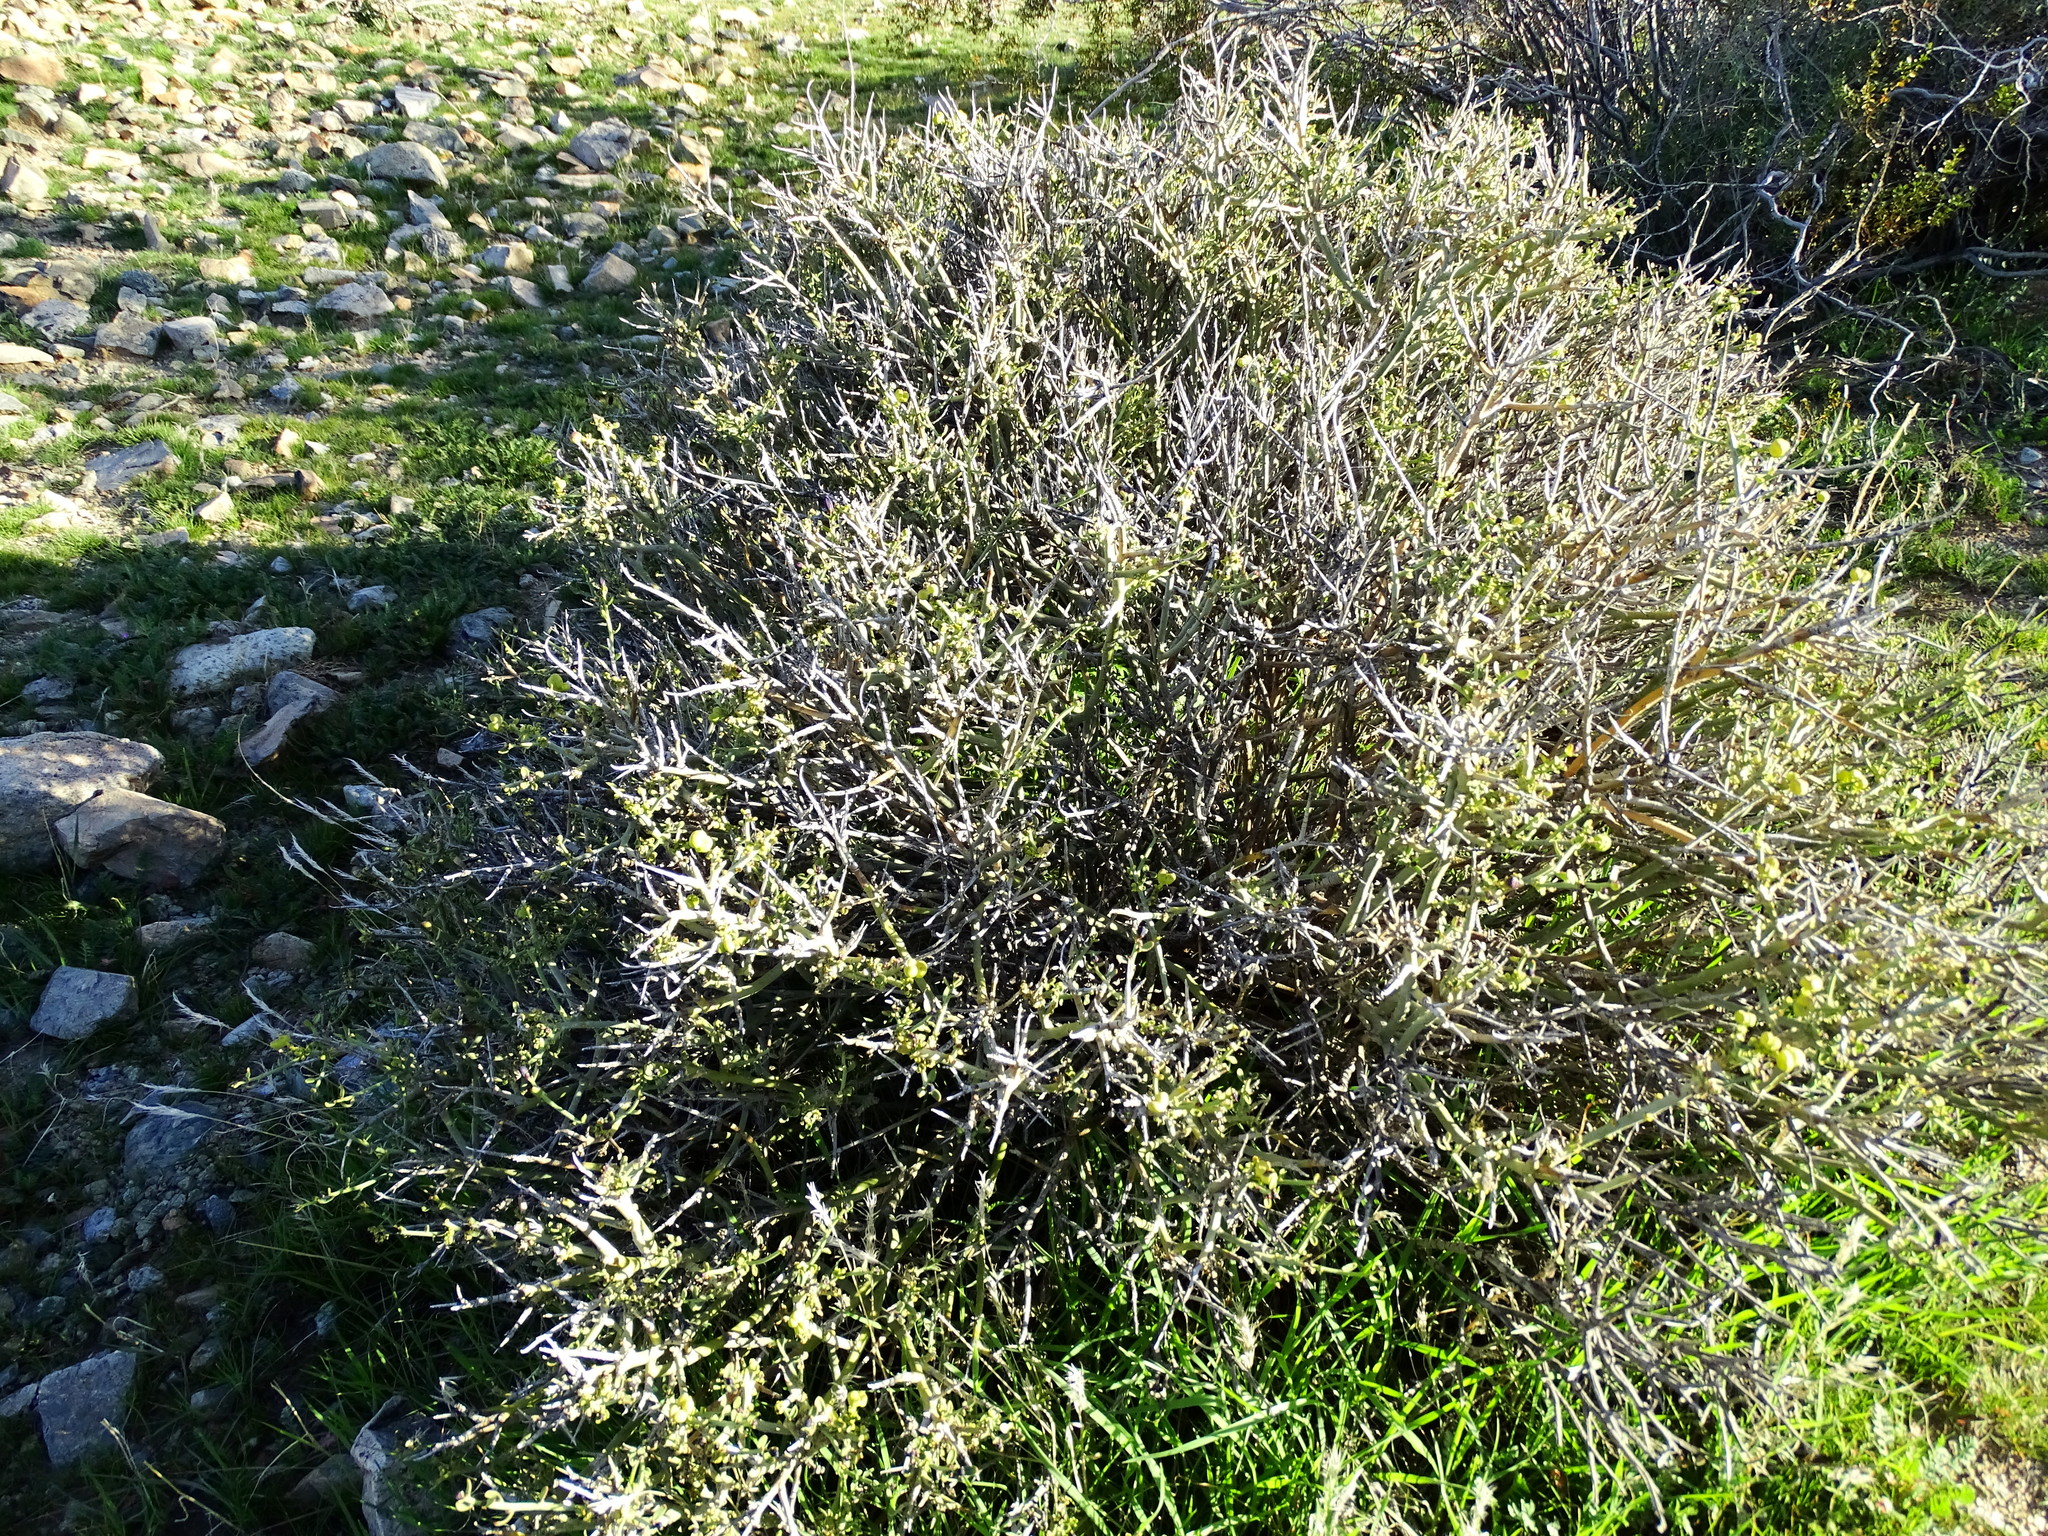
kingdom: Plantae
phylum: Tracheophyta
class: Magnoliopsida
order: Sapindales
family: Rutaceae
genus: Thamnosma
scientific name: Thamnosma montana
